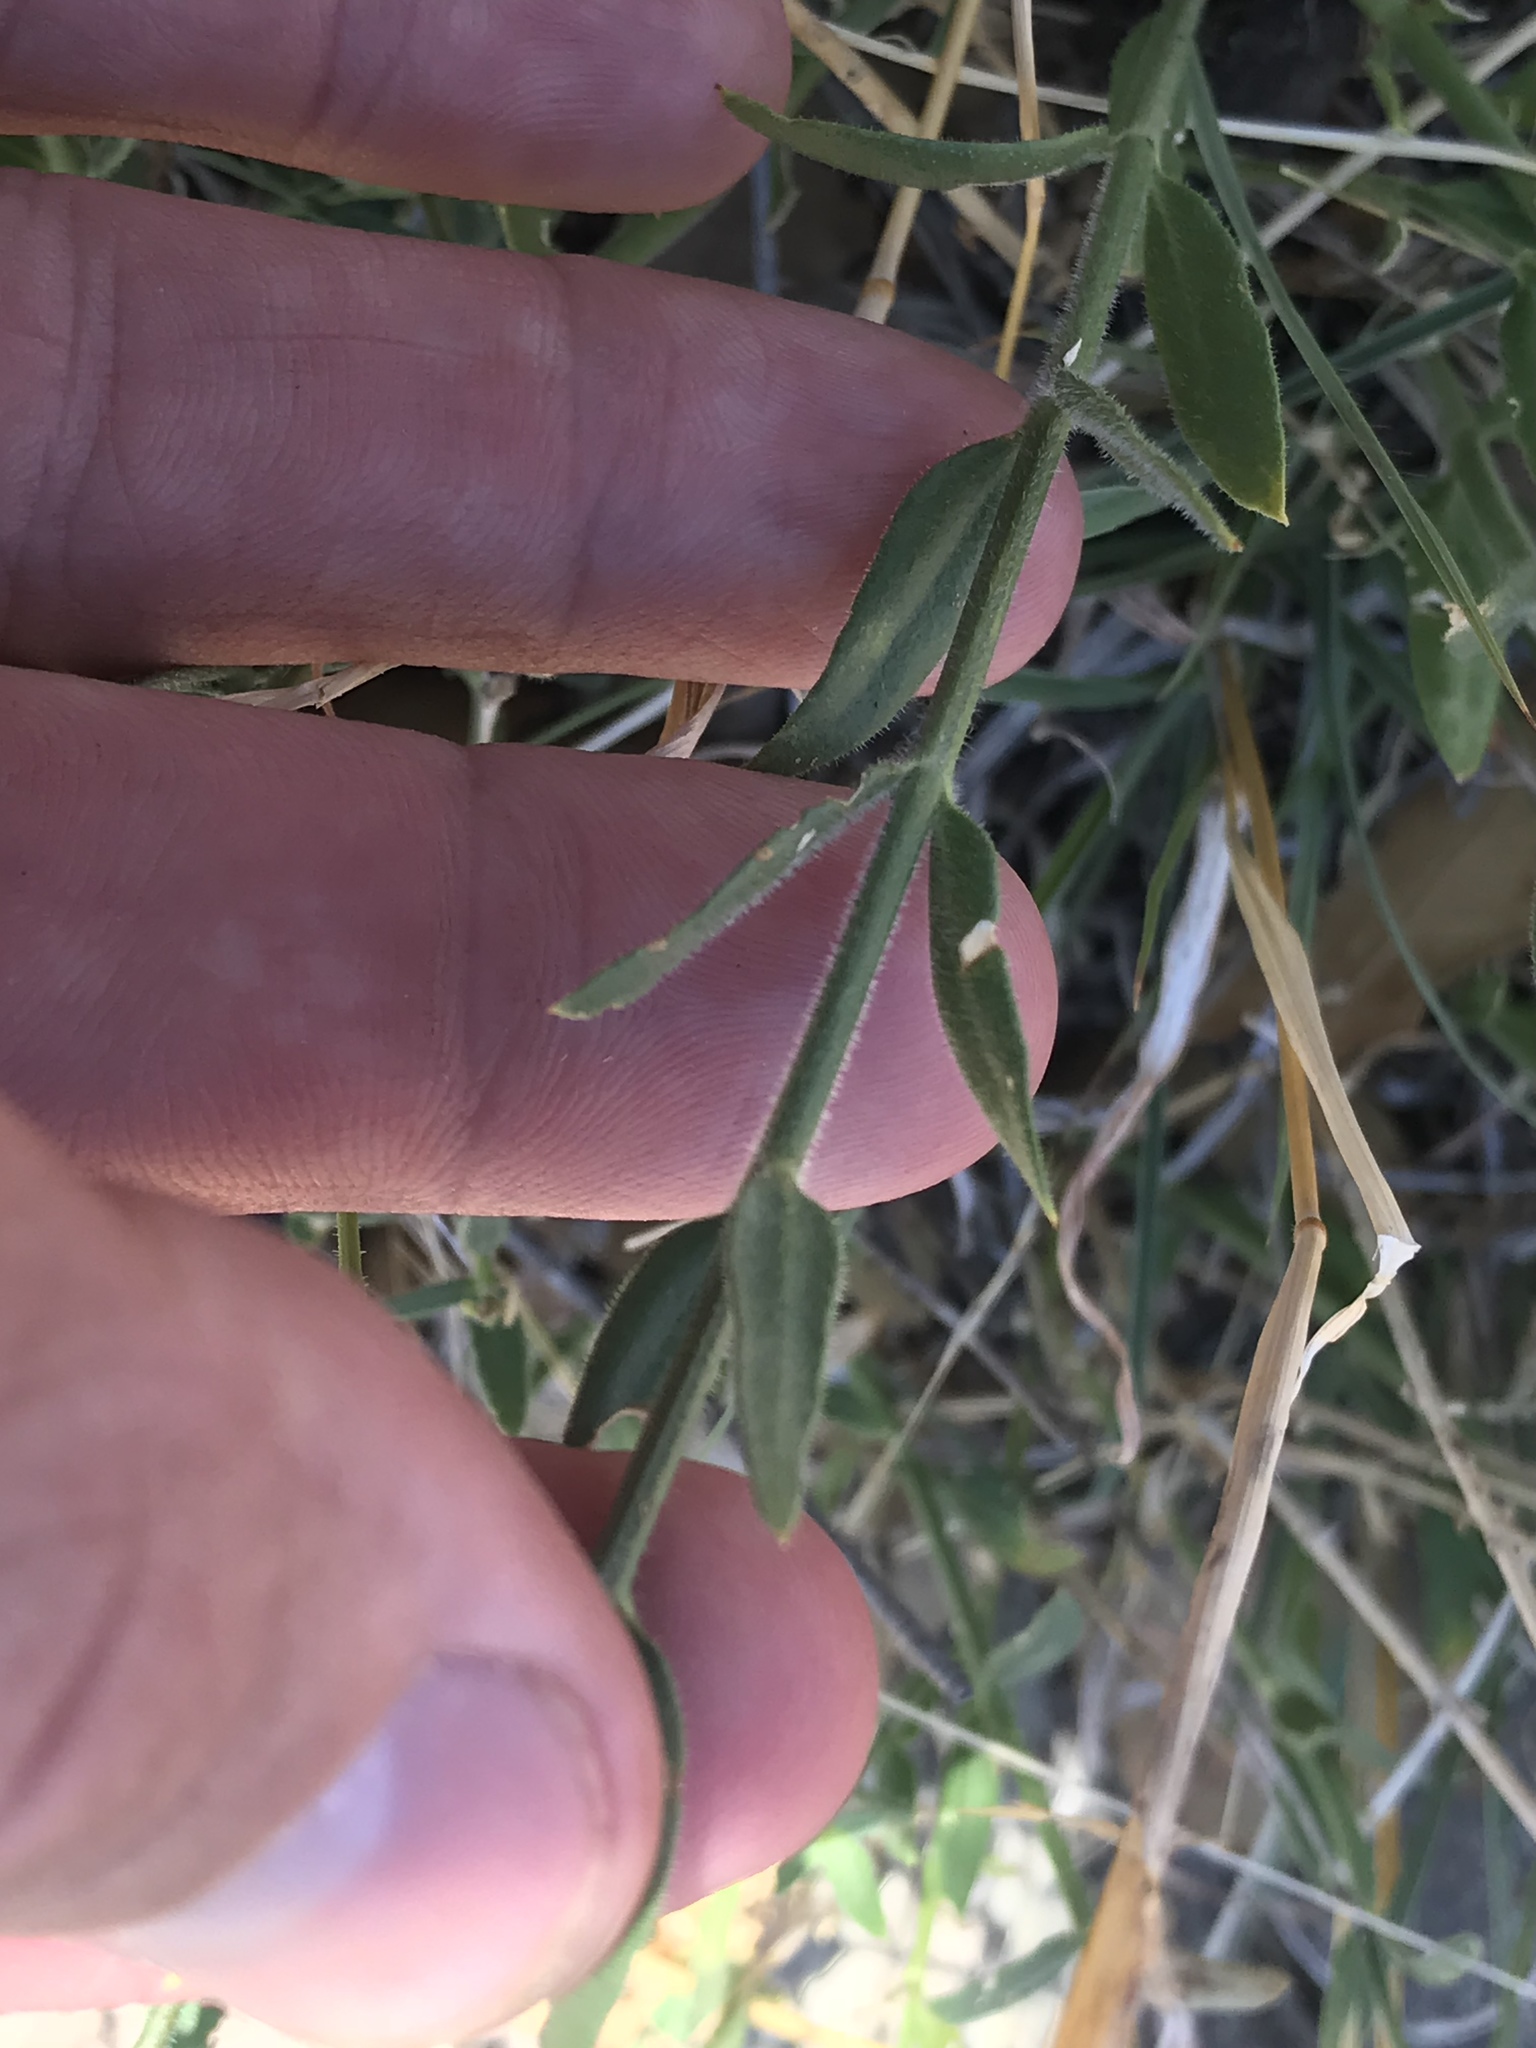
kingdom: Plantae
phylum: Tracheophyta
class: Magnoliopsida
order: Lamiales
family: Oleaceae
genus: Menodora
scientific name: Menodora longiflora
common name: Showy menodora
